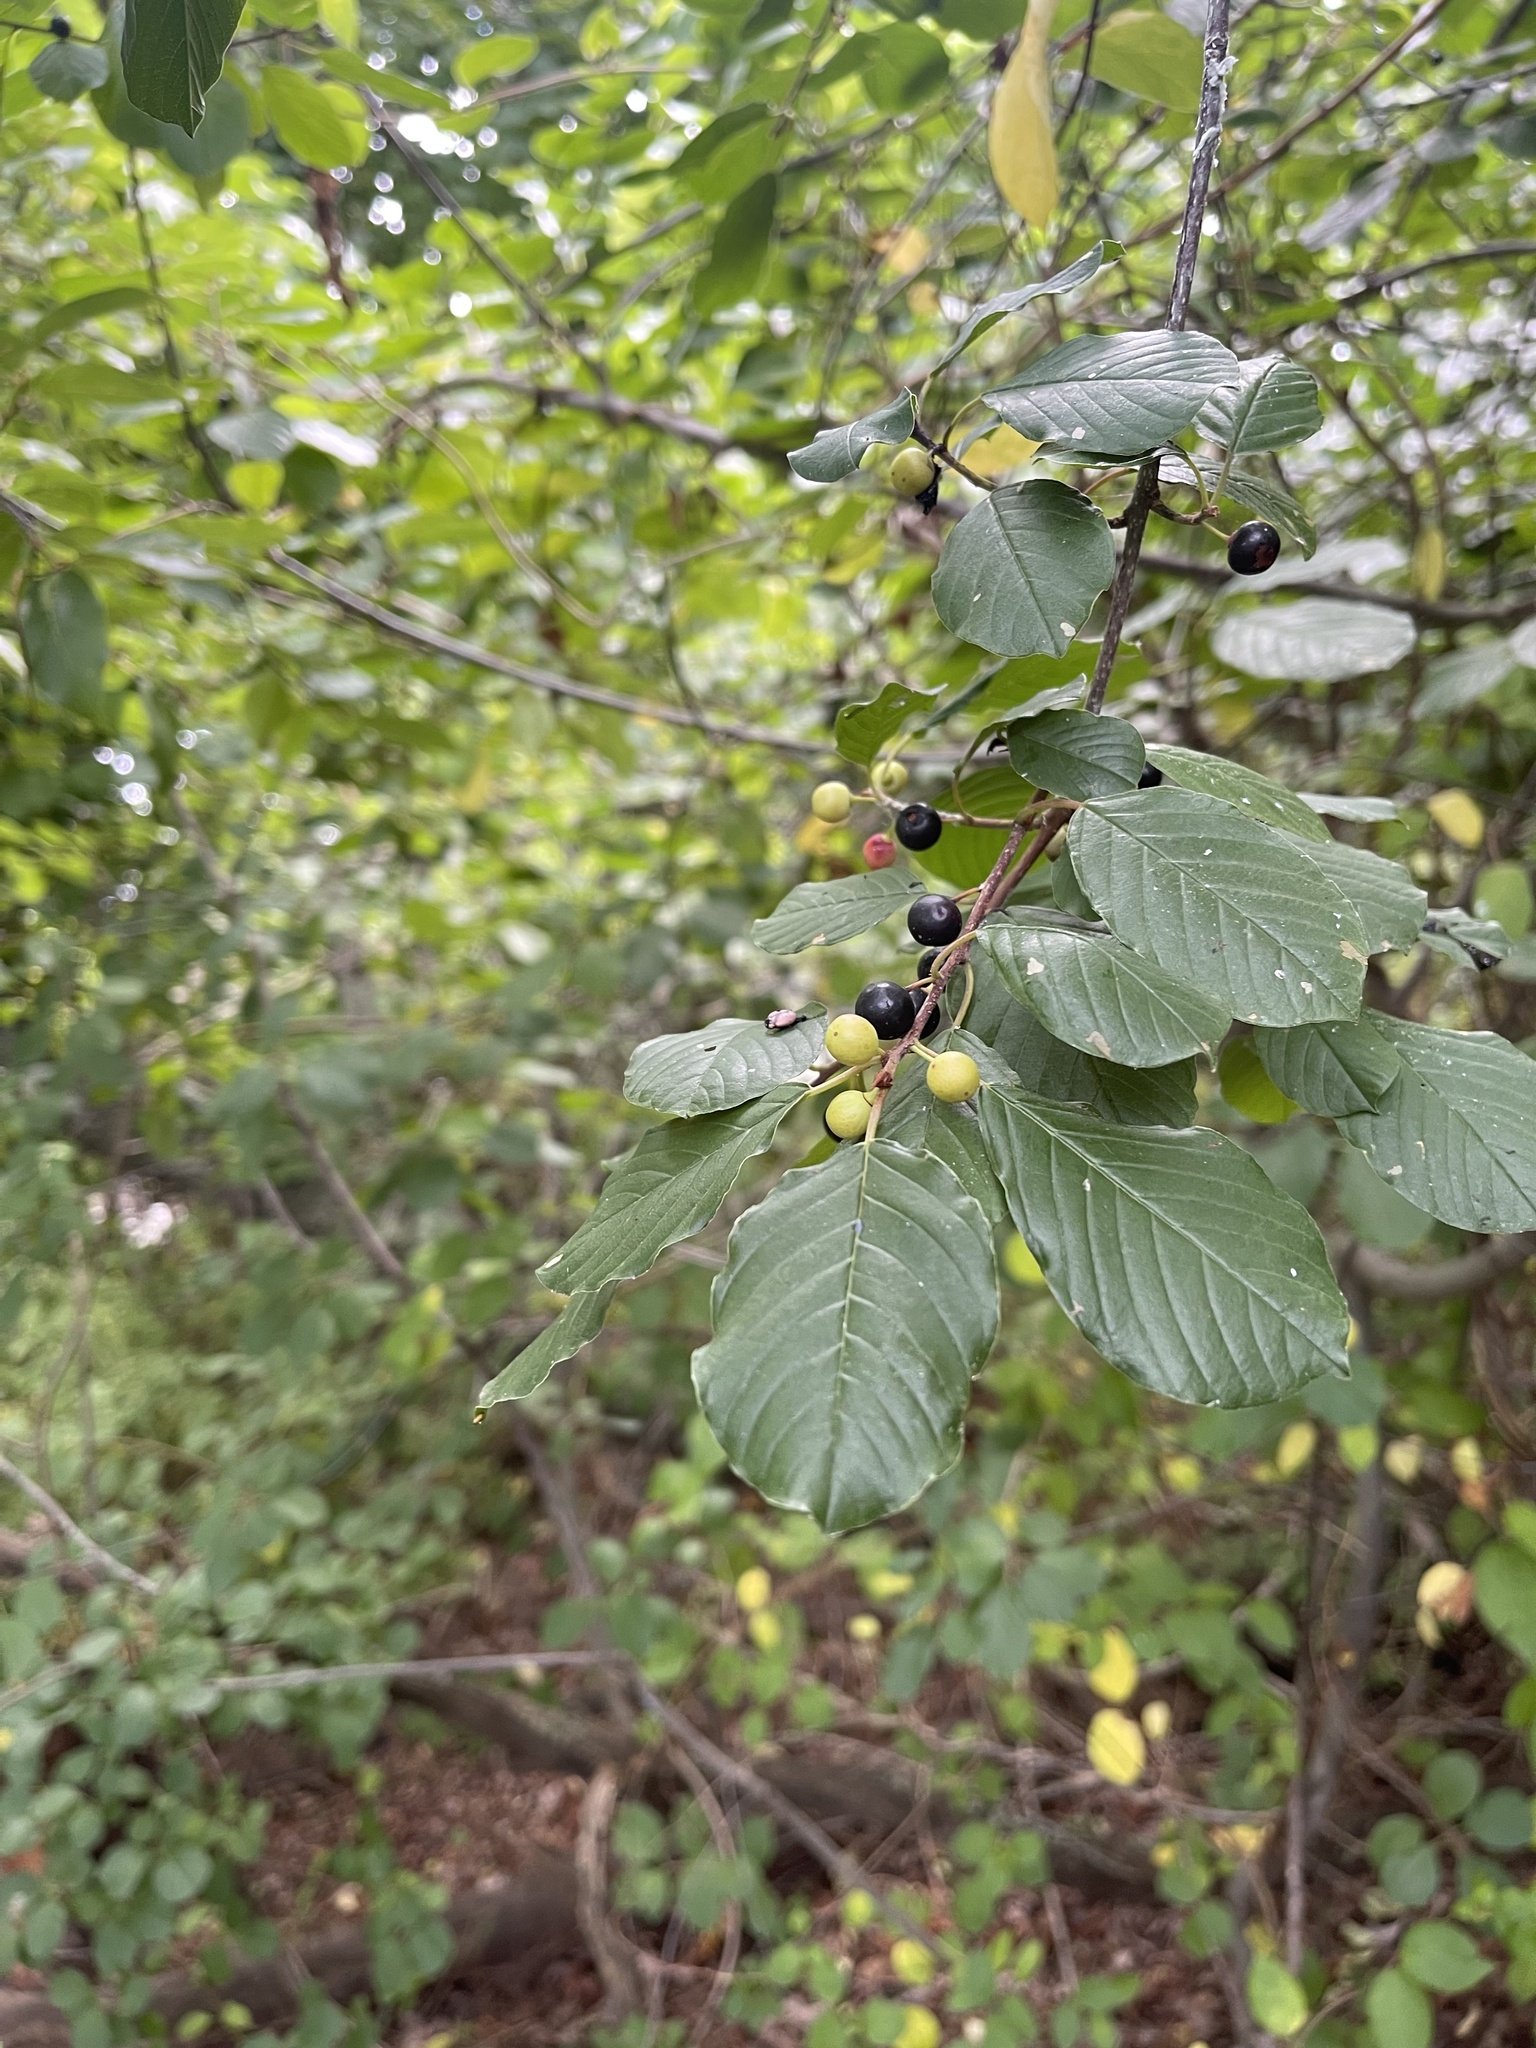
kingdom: Plantae
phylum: Tracheophyta
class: Magnoliopsida
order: Rosales
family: Rhamnaceae
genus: Frangula
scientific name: Frangula alnus
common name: Alder buckthorn
